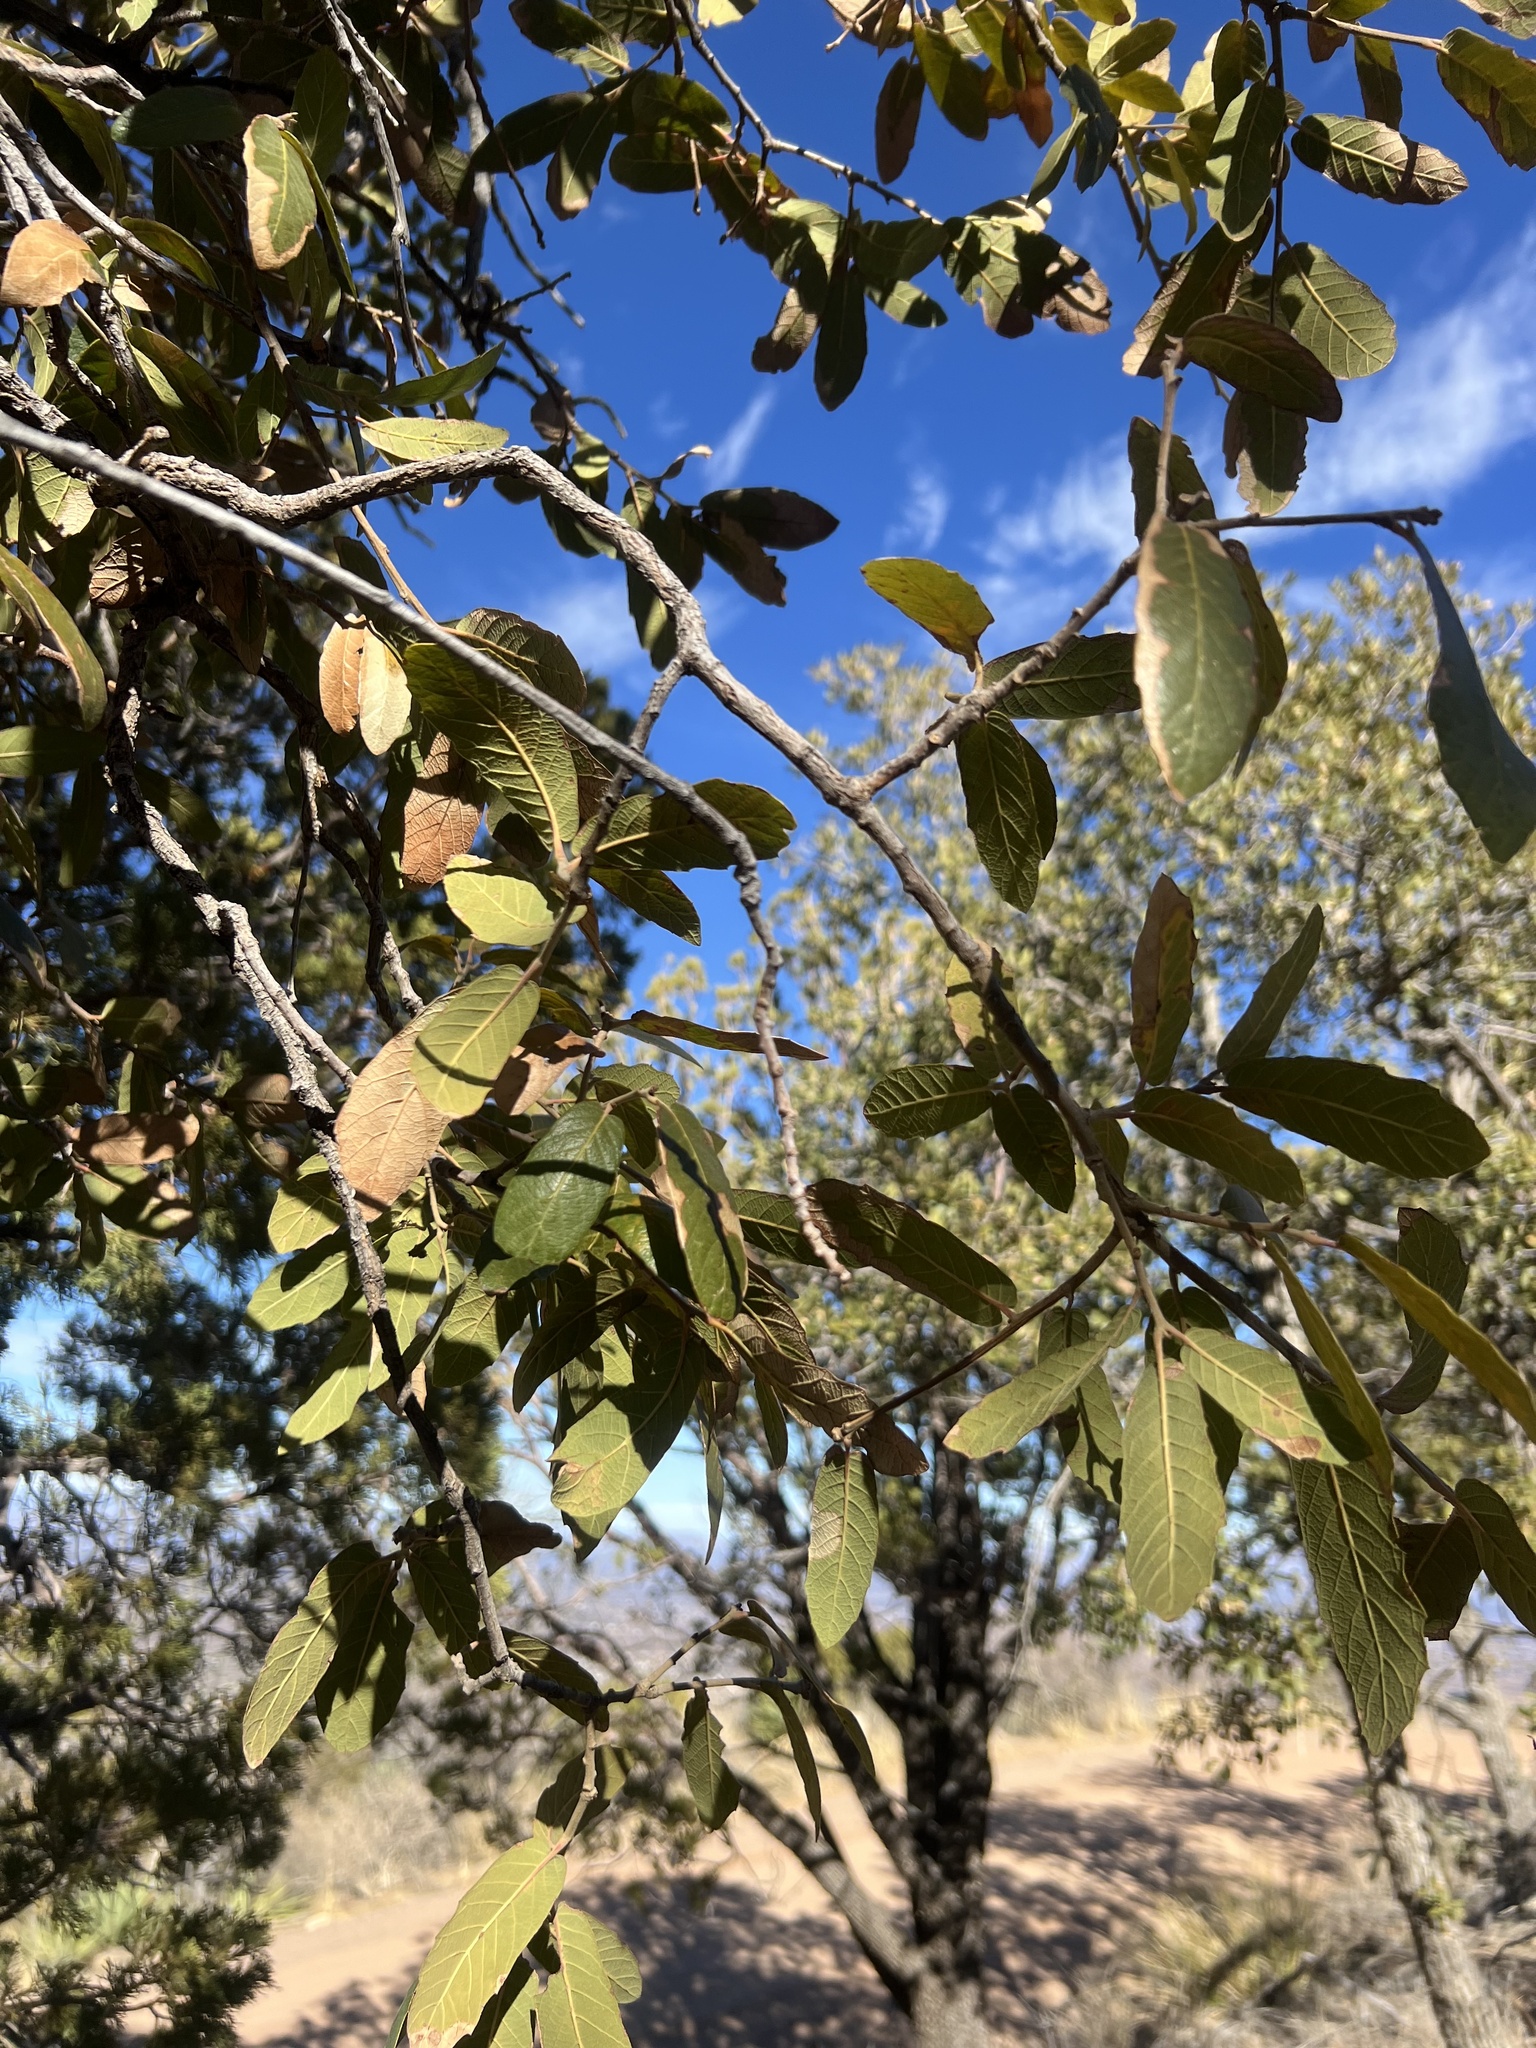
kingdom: Plantae
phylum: Tracheophyta
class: Magnoliopsida
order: Fagales
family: Fagaceae
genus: Quercus
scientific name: Quercus arizonica
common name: Arizona white oak
